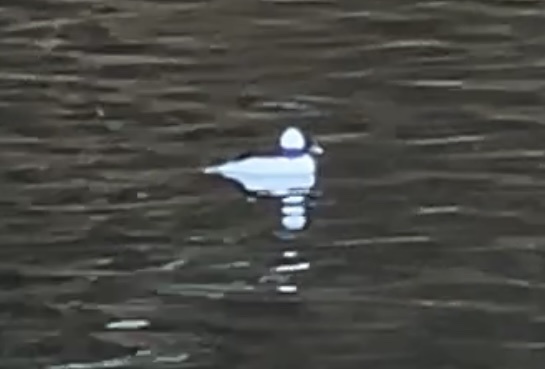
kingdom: Animalia
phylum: Chordata
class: Aves
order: Anseriformes
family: Anatidae
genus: Bucephala
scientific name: Bucephala albeola
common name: Bufflehead
